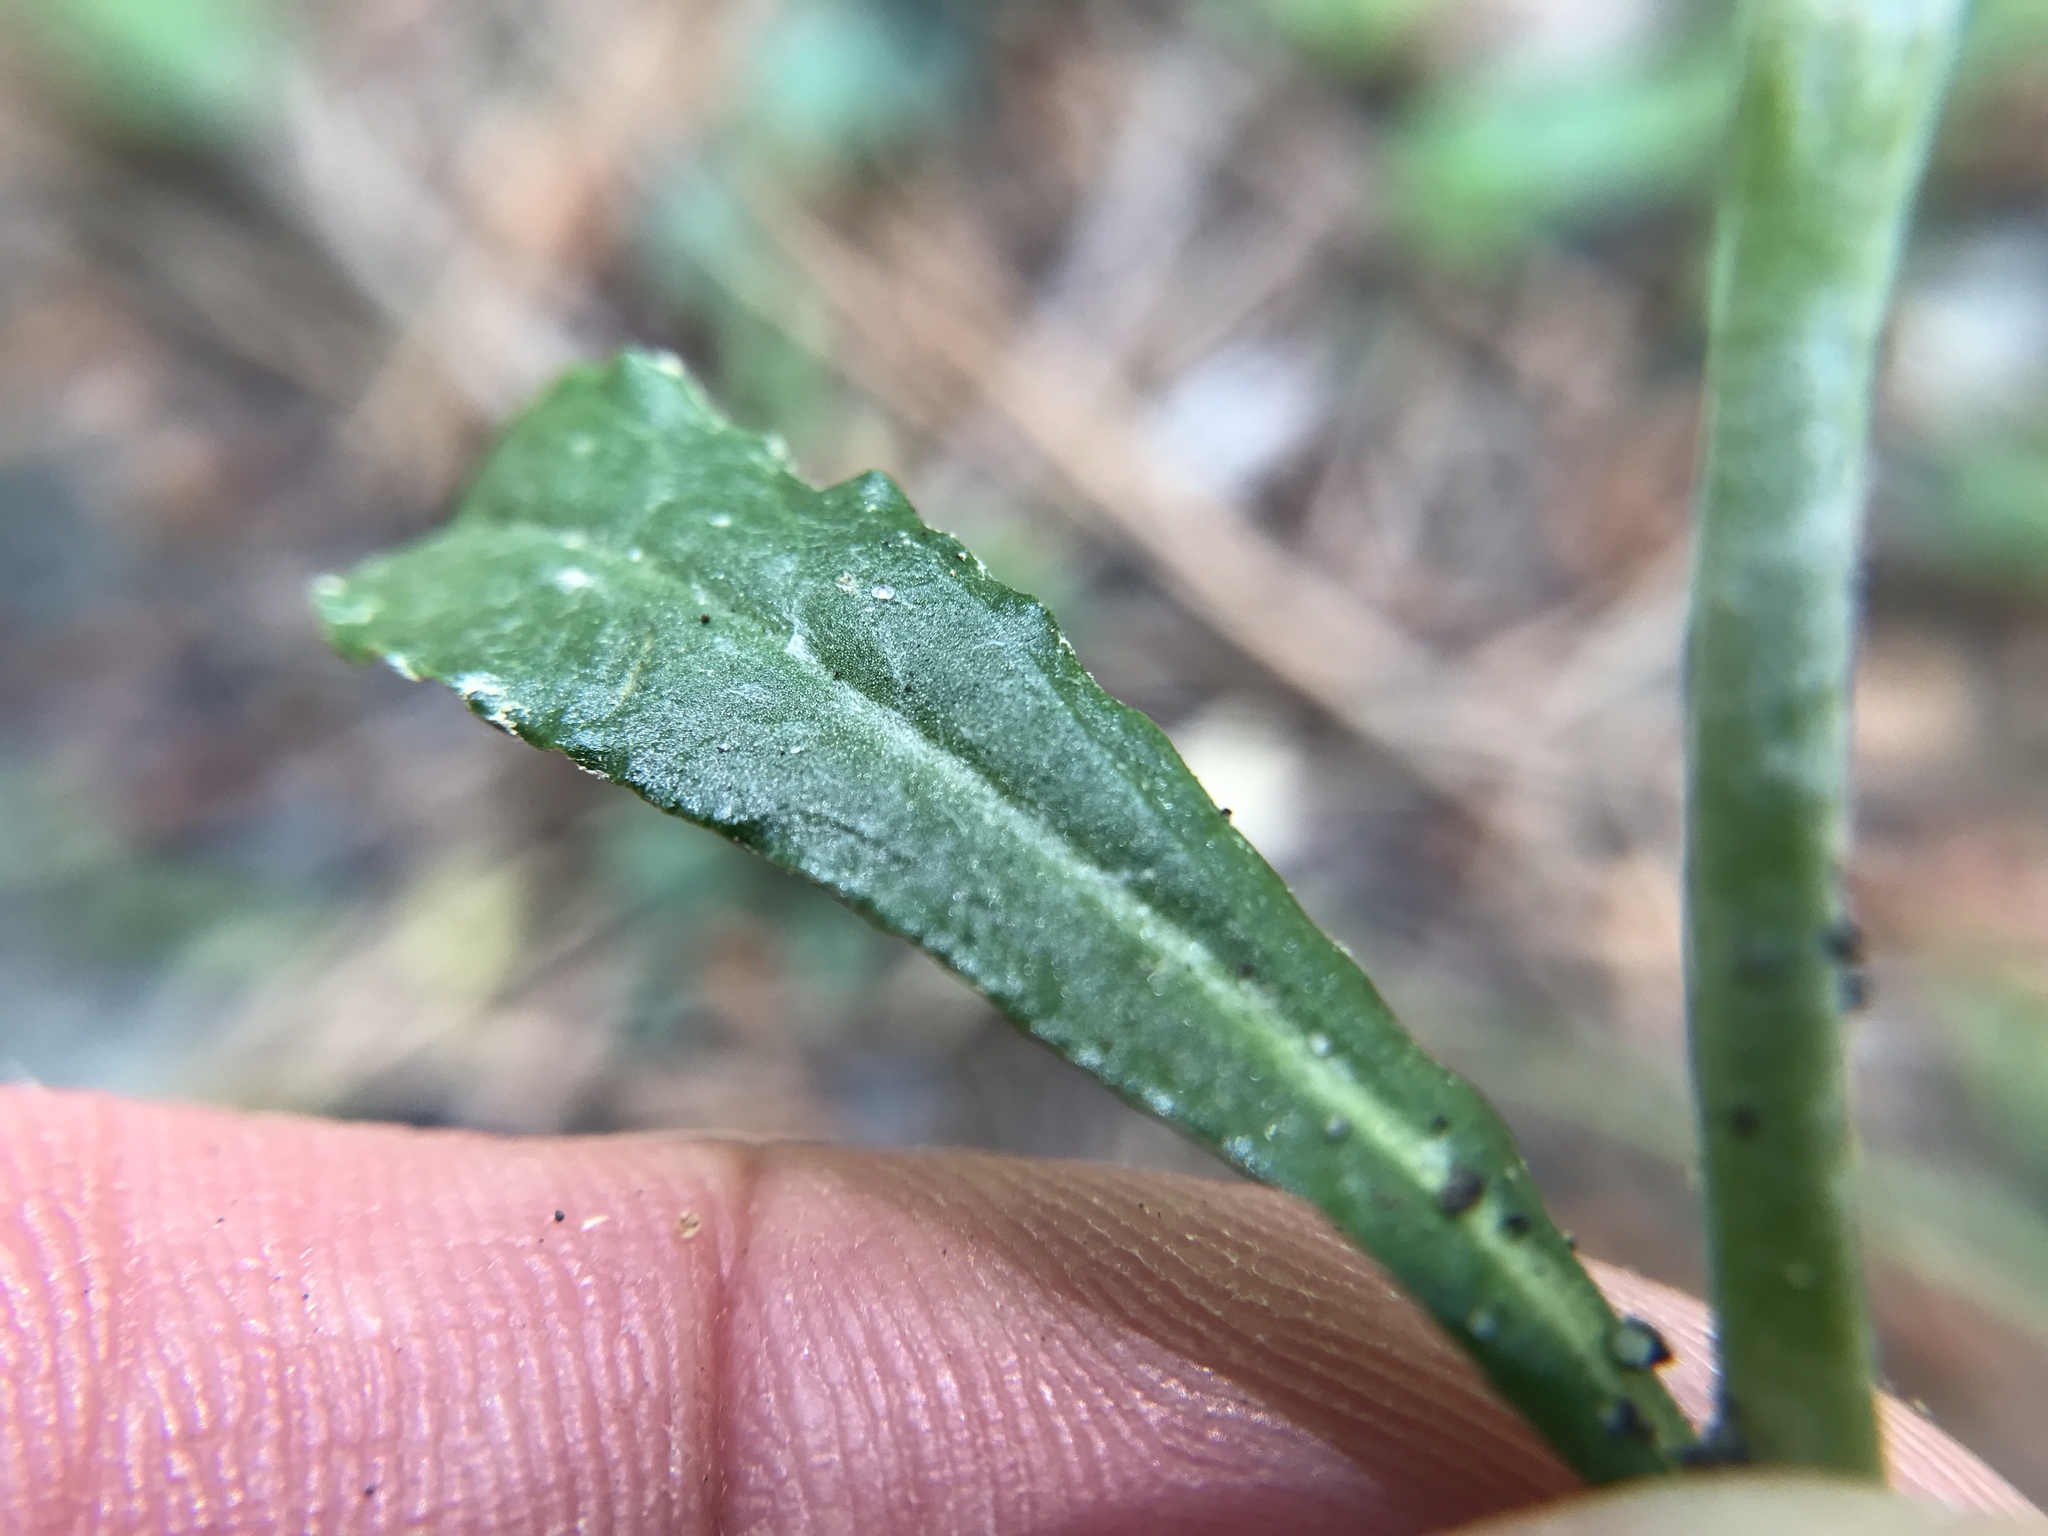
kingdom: Plantae
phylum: Tracheophyta
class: Magnoliopsida
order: Asterales
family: Asteraceae
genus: Gamochaeta
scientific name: Gamochaeta purpurea
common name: Purple cudweed
